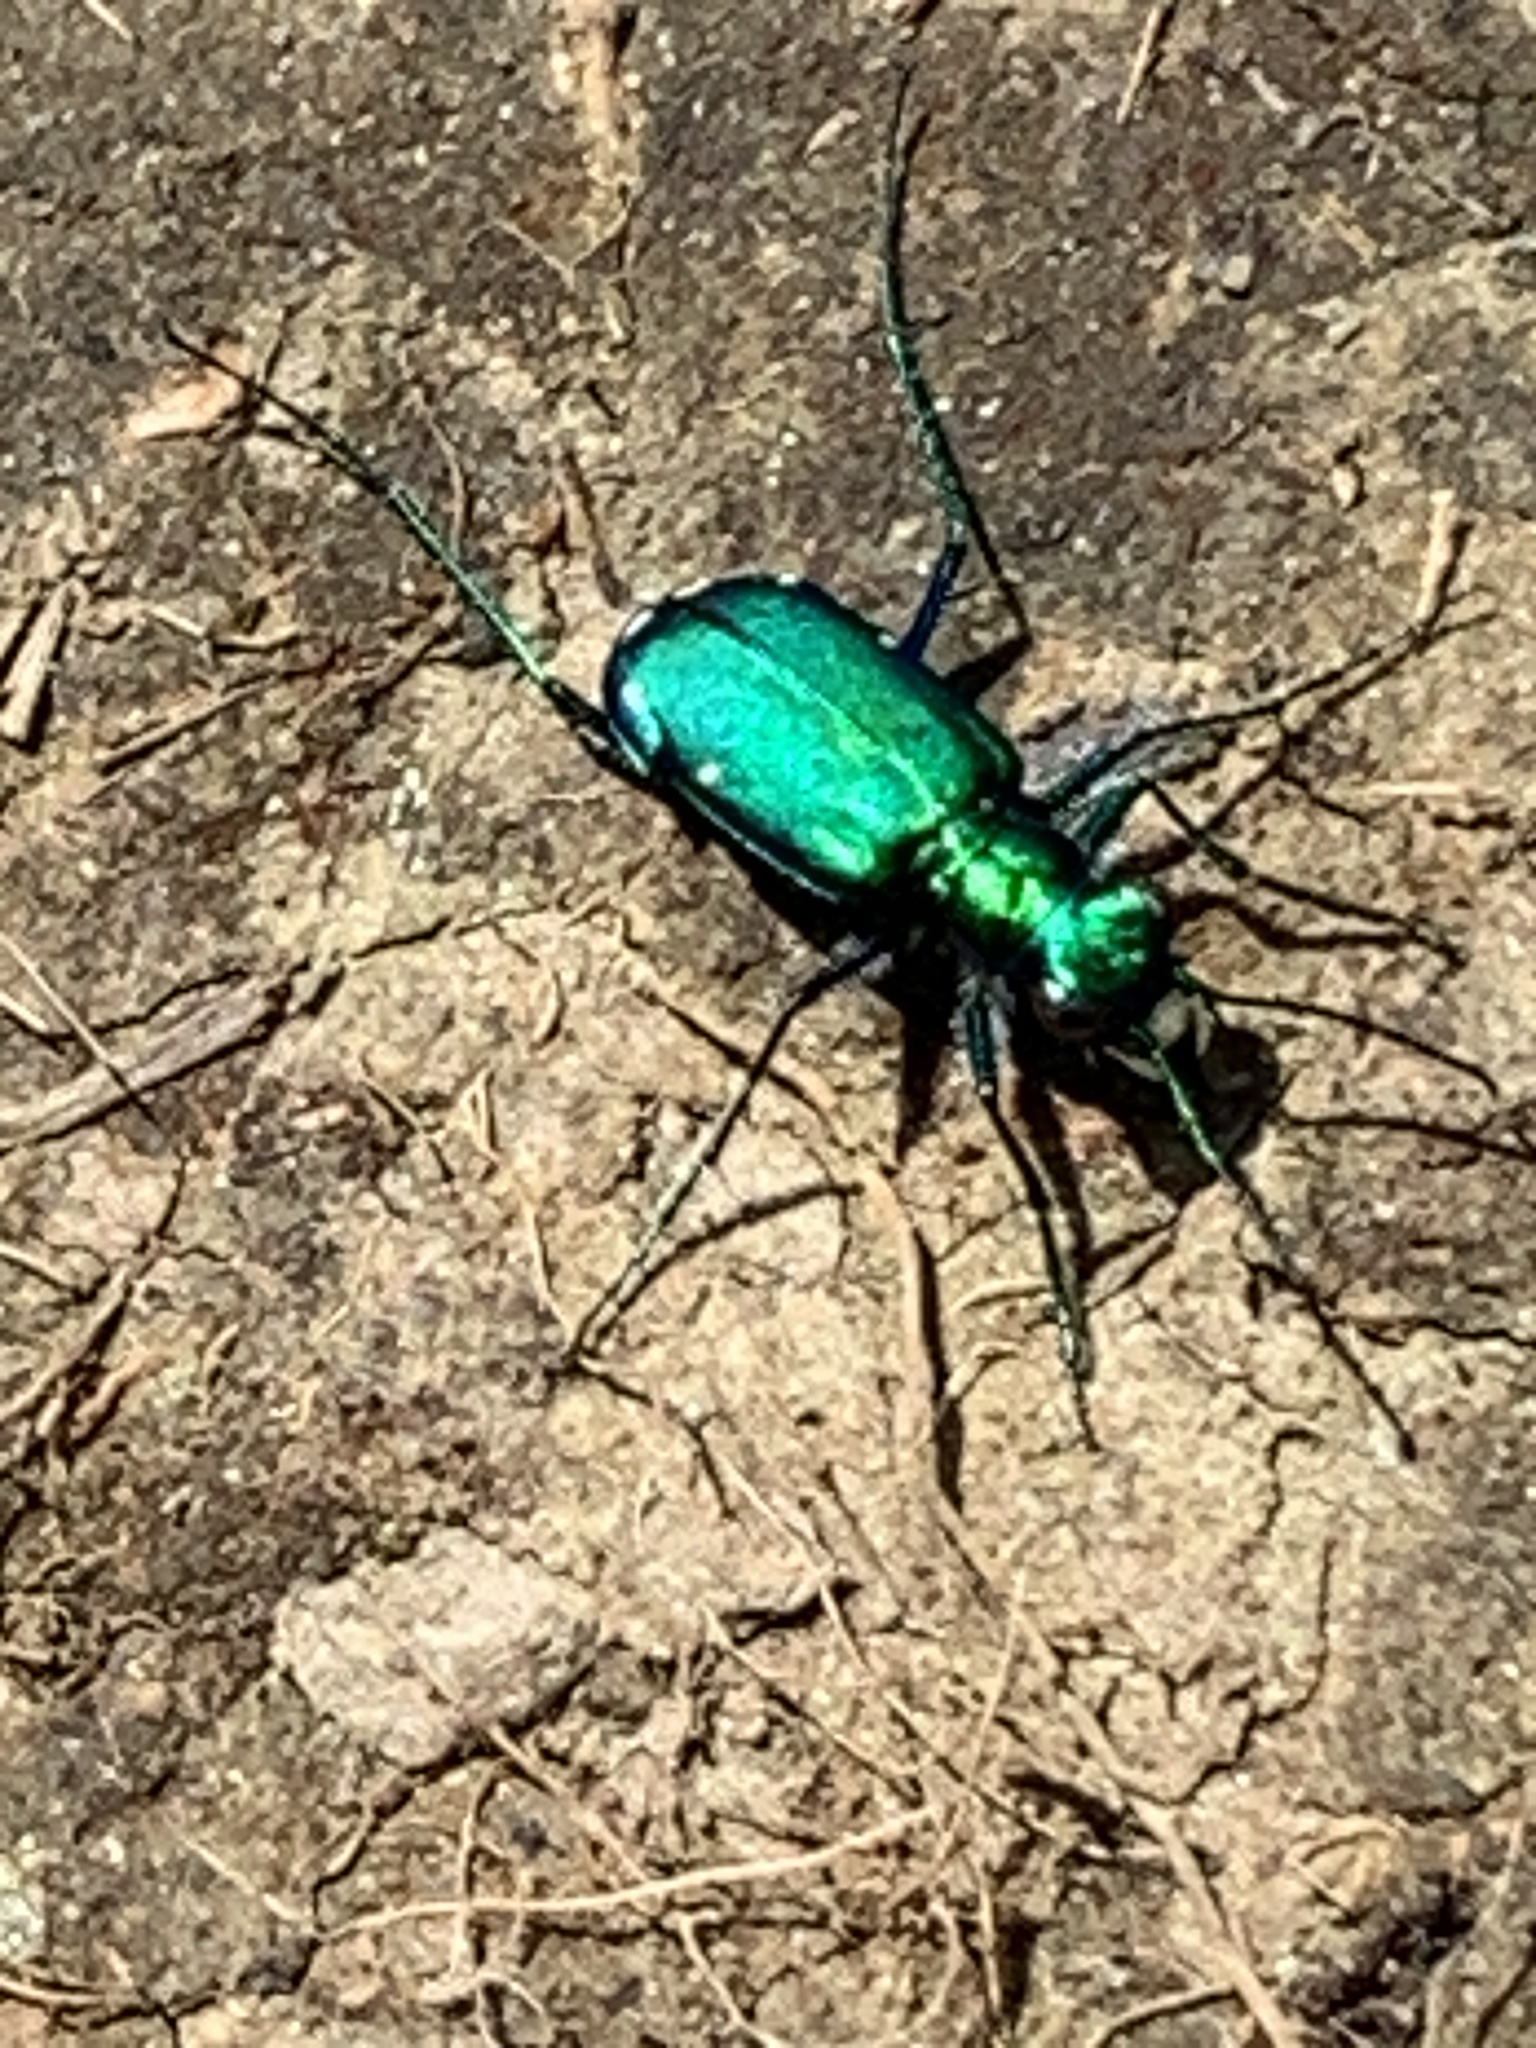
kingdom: Animalia
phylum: Arthropoda
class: Insecta
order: Coleoptera
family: Carabidae
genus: Cicindela
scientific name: Cicindela sexguttata
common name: Six-spotted tiger beetle
